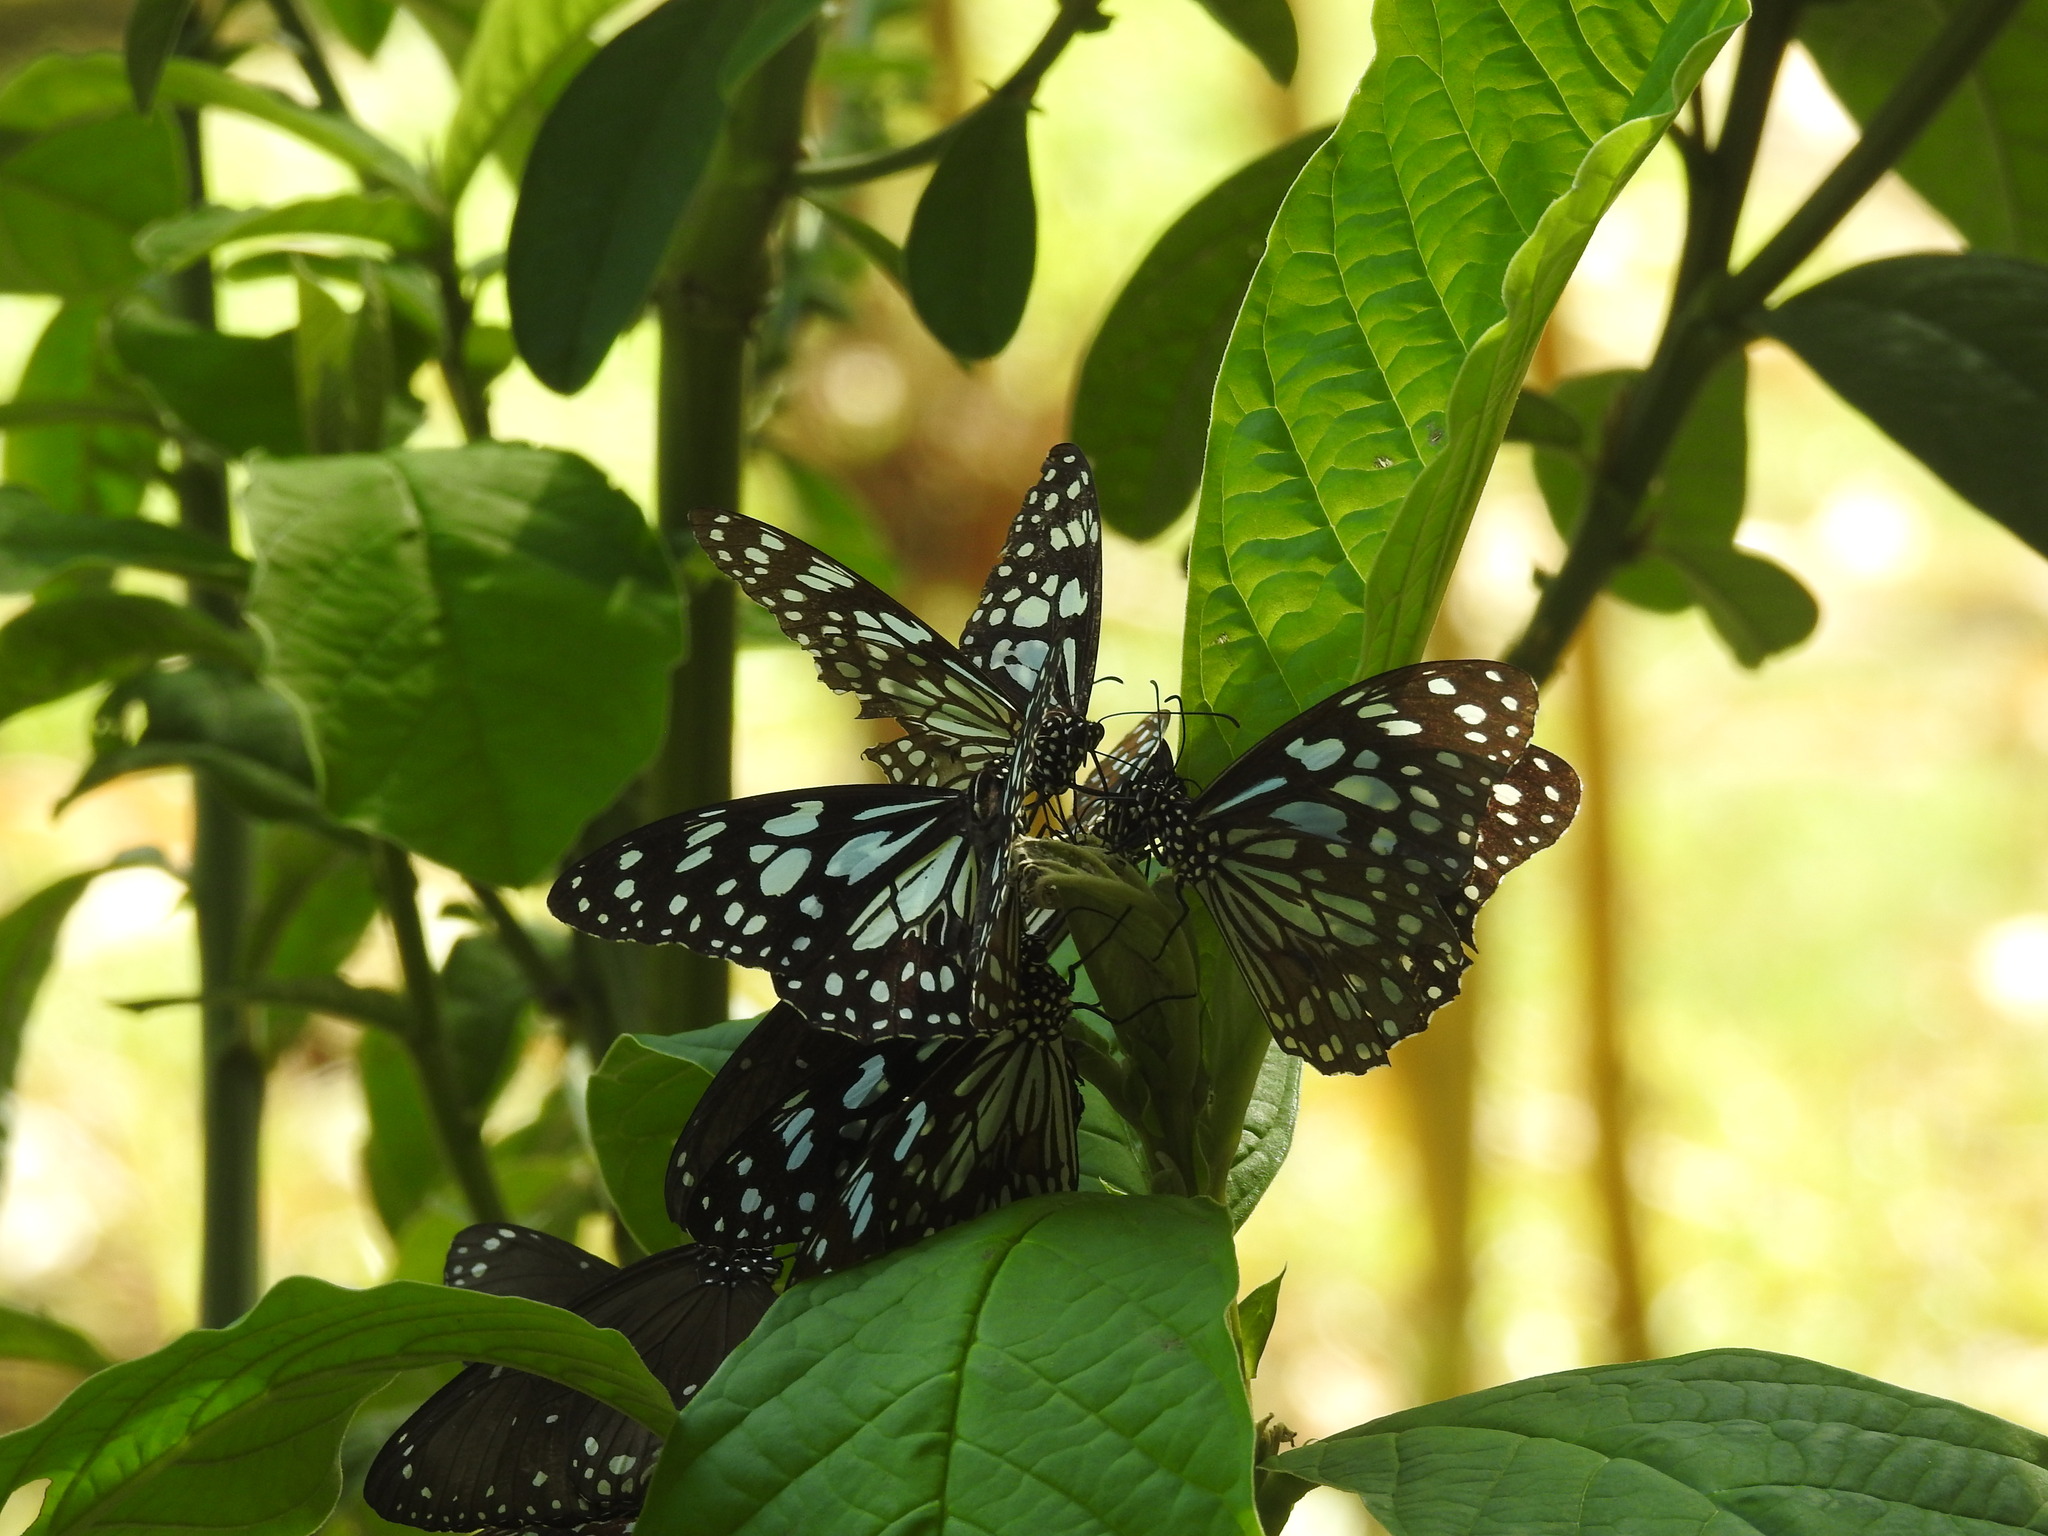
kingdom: Animalia
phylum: Arthropoda
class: Insecta
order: Lepidoptera
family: Nymphalidae
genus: Tirumala
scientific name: Tirumala limniace
